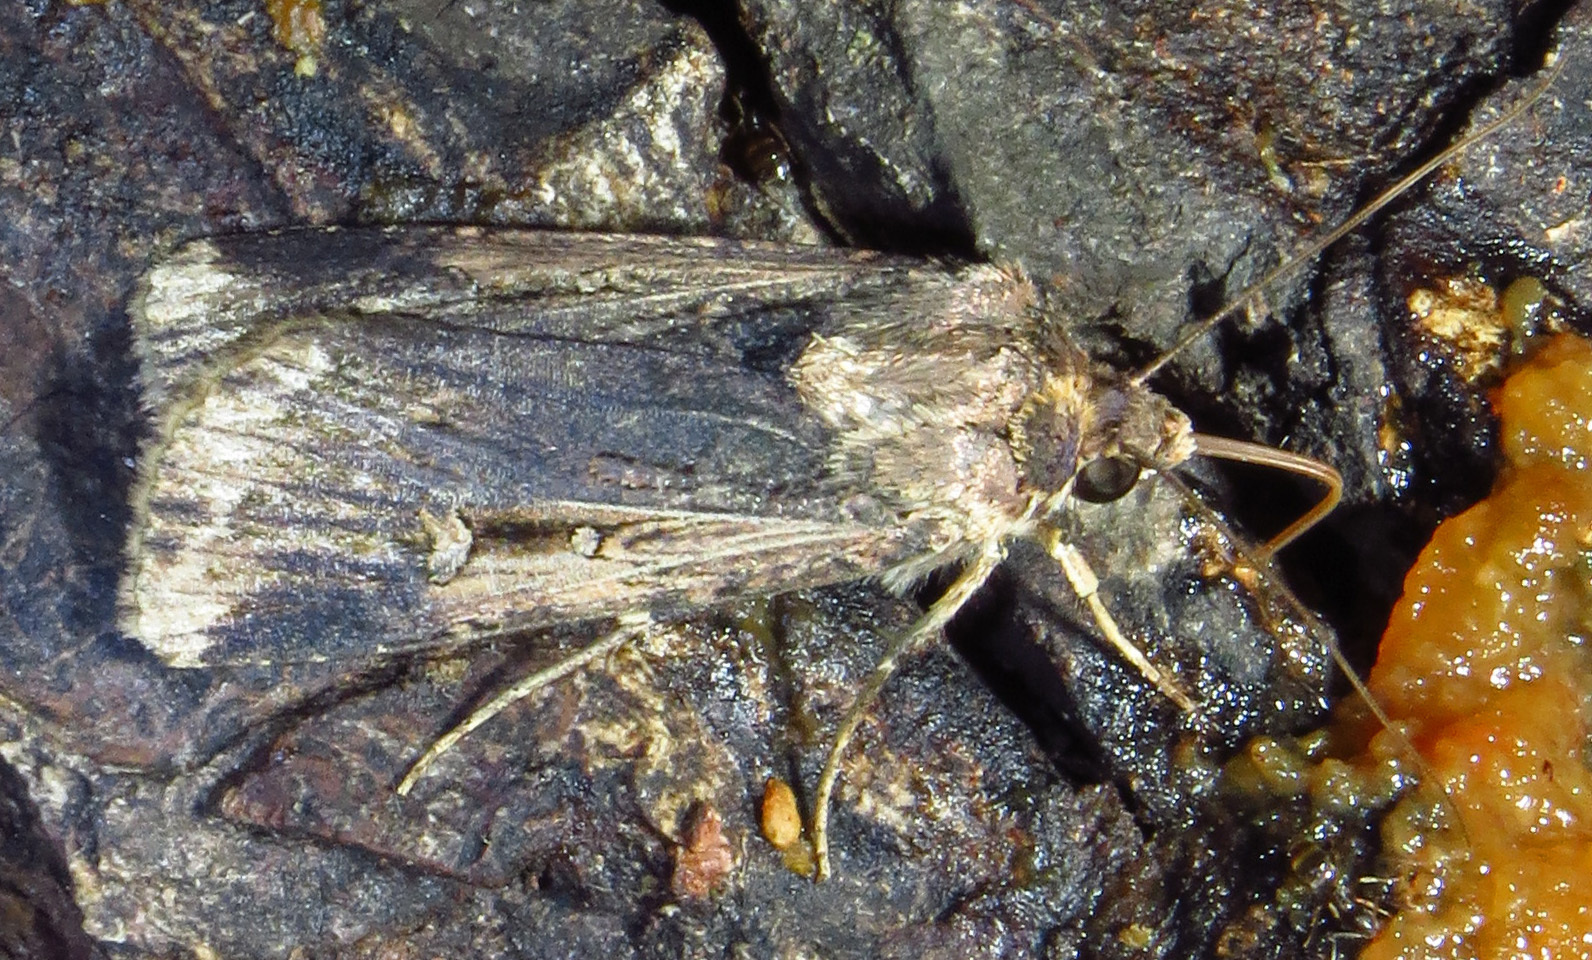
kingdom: Animalia
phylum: Arthropoda
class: Insecta
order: Lepidoptera
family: Noctuidae
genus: Feltia
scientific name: Feltia subterranea
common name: Granulate cutworm
